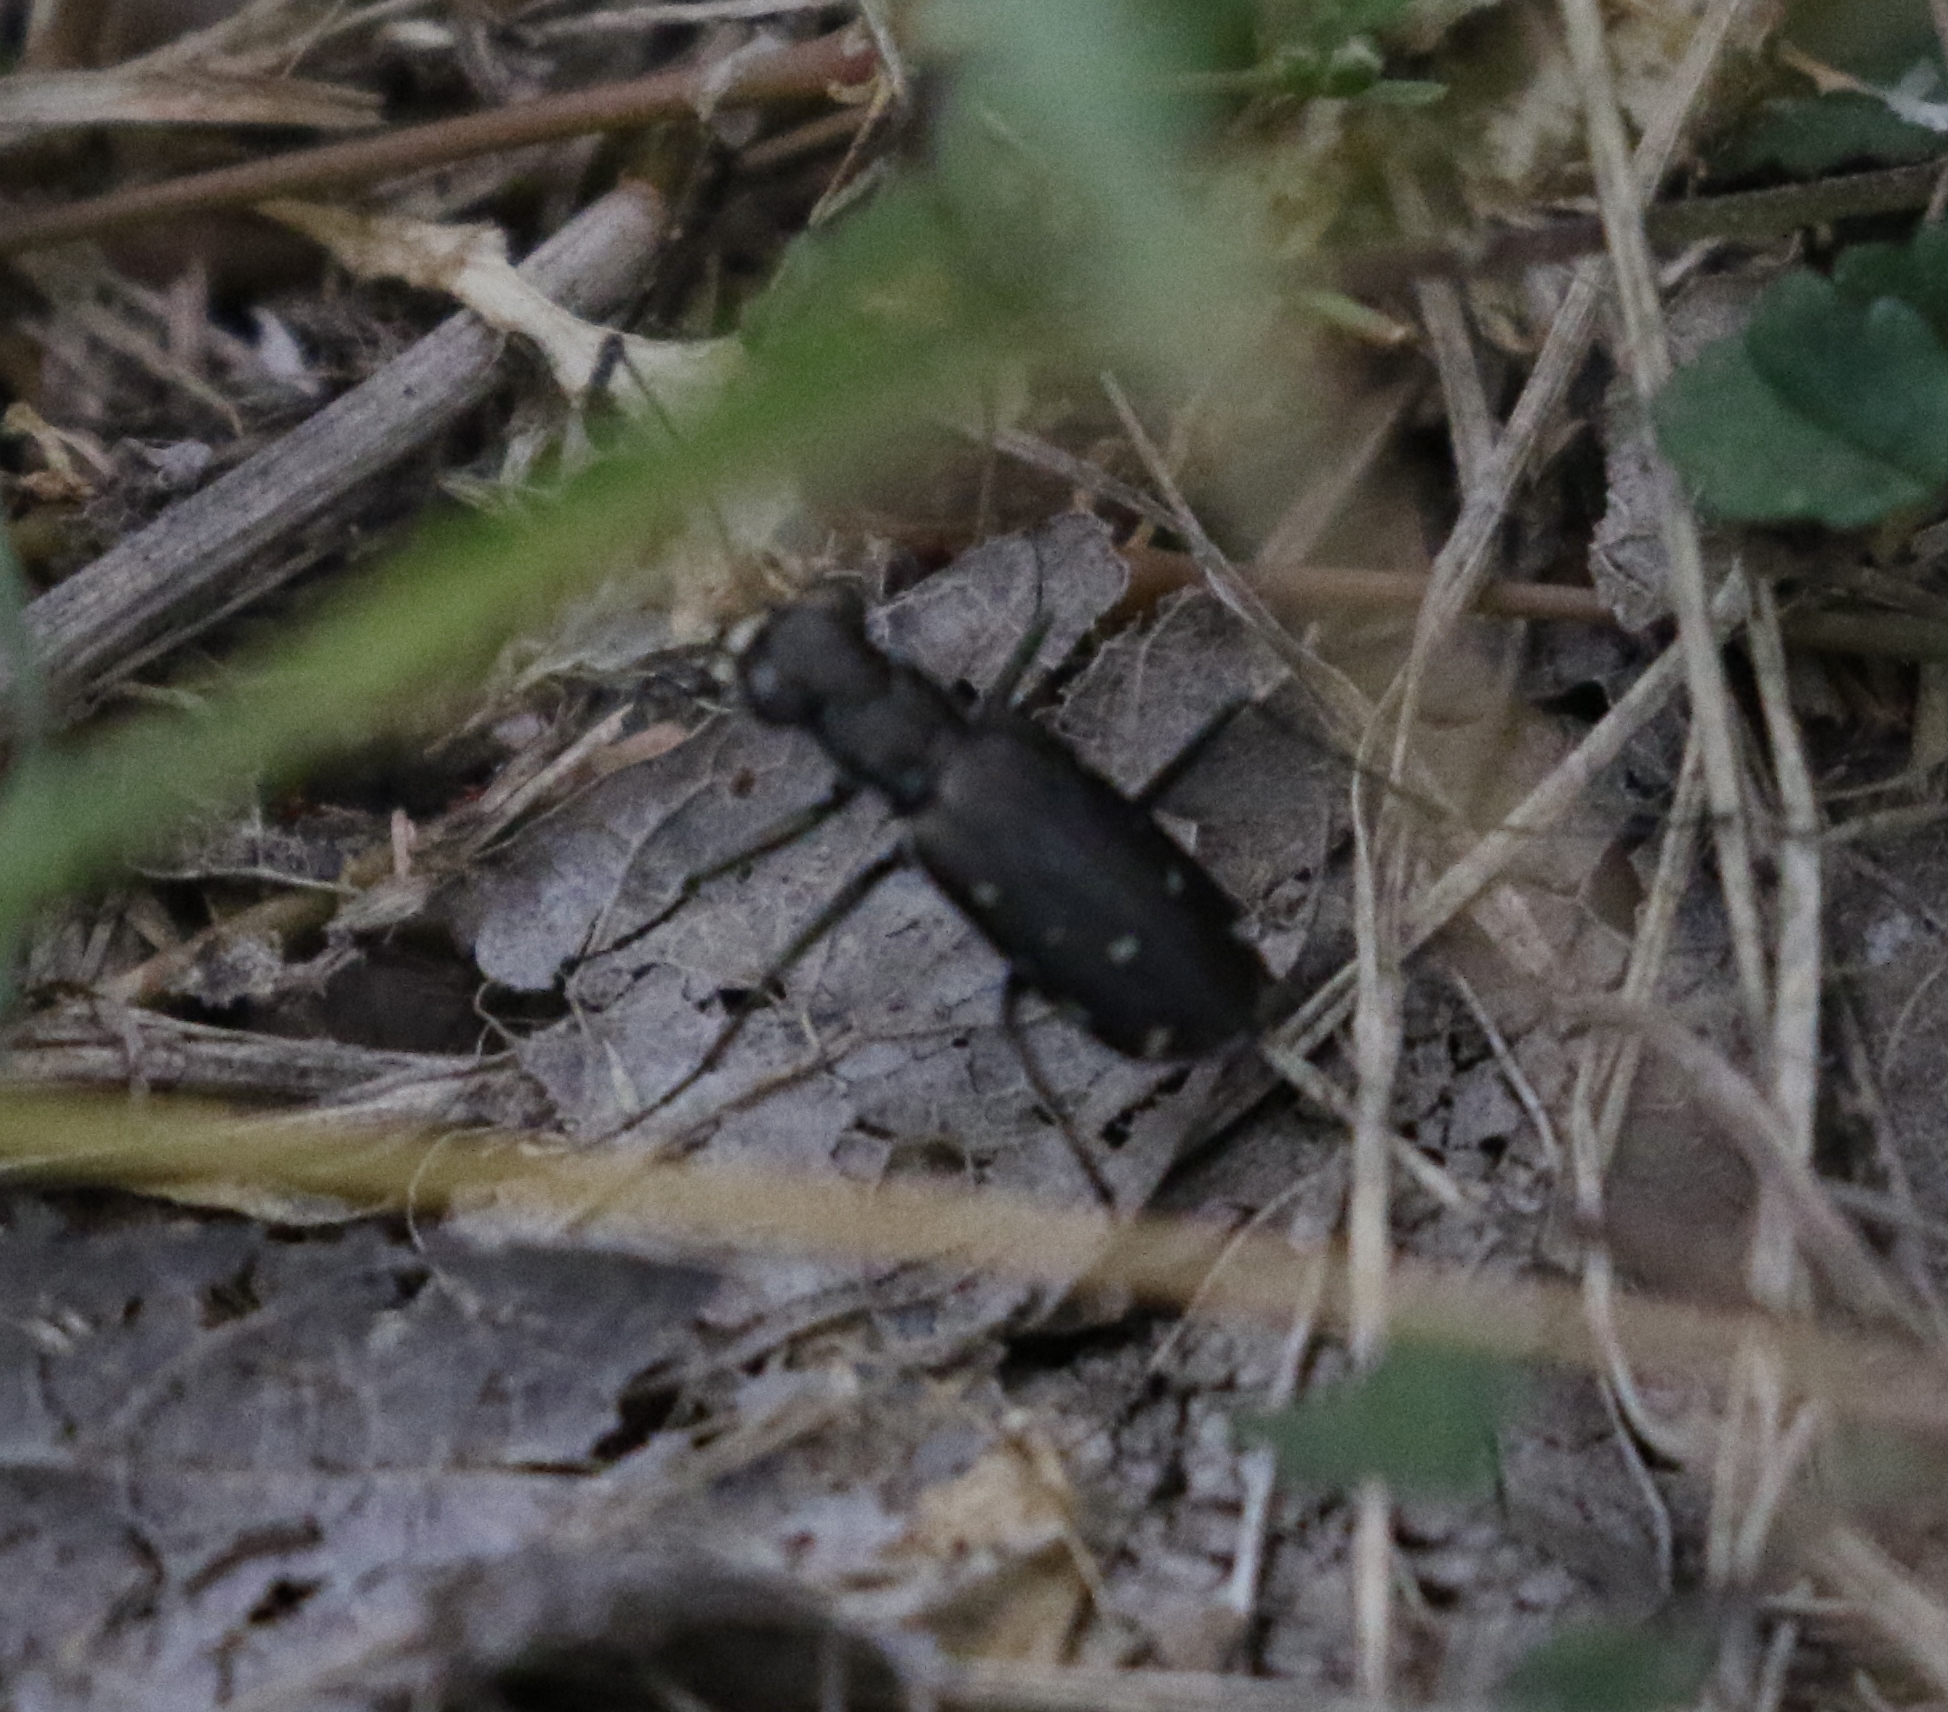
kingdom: Animalia
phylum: Arthropoda
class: Insecta
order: Coleoptera
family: Carabidae
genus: Cicindela
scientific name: Cicindela punctulata
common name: Punctured tiger beetle
